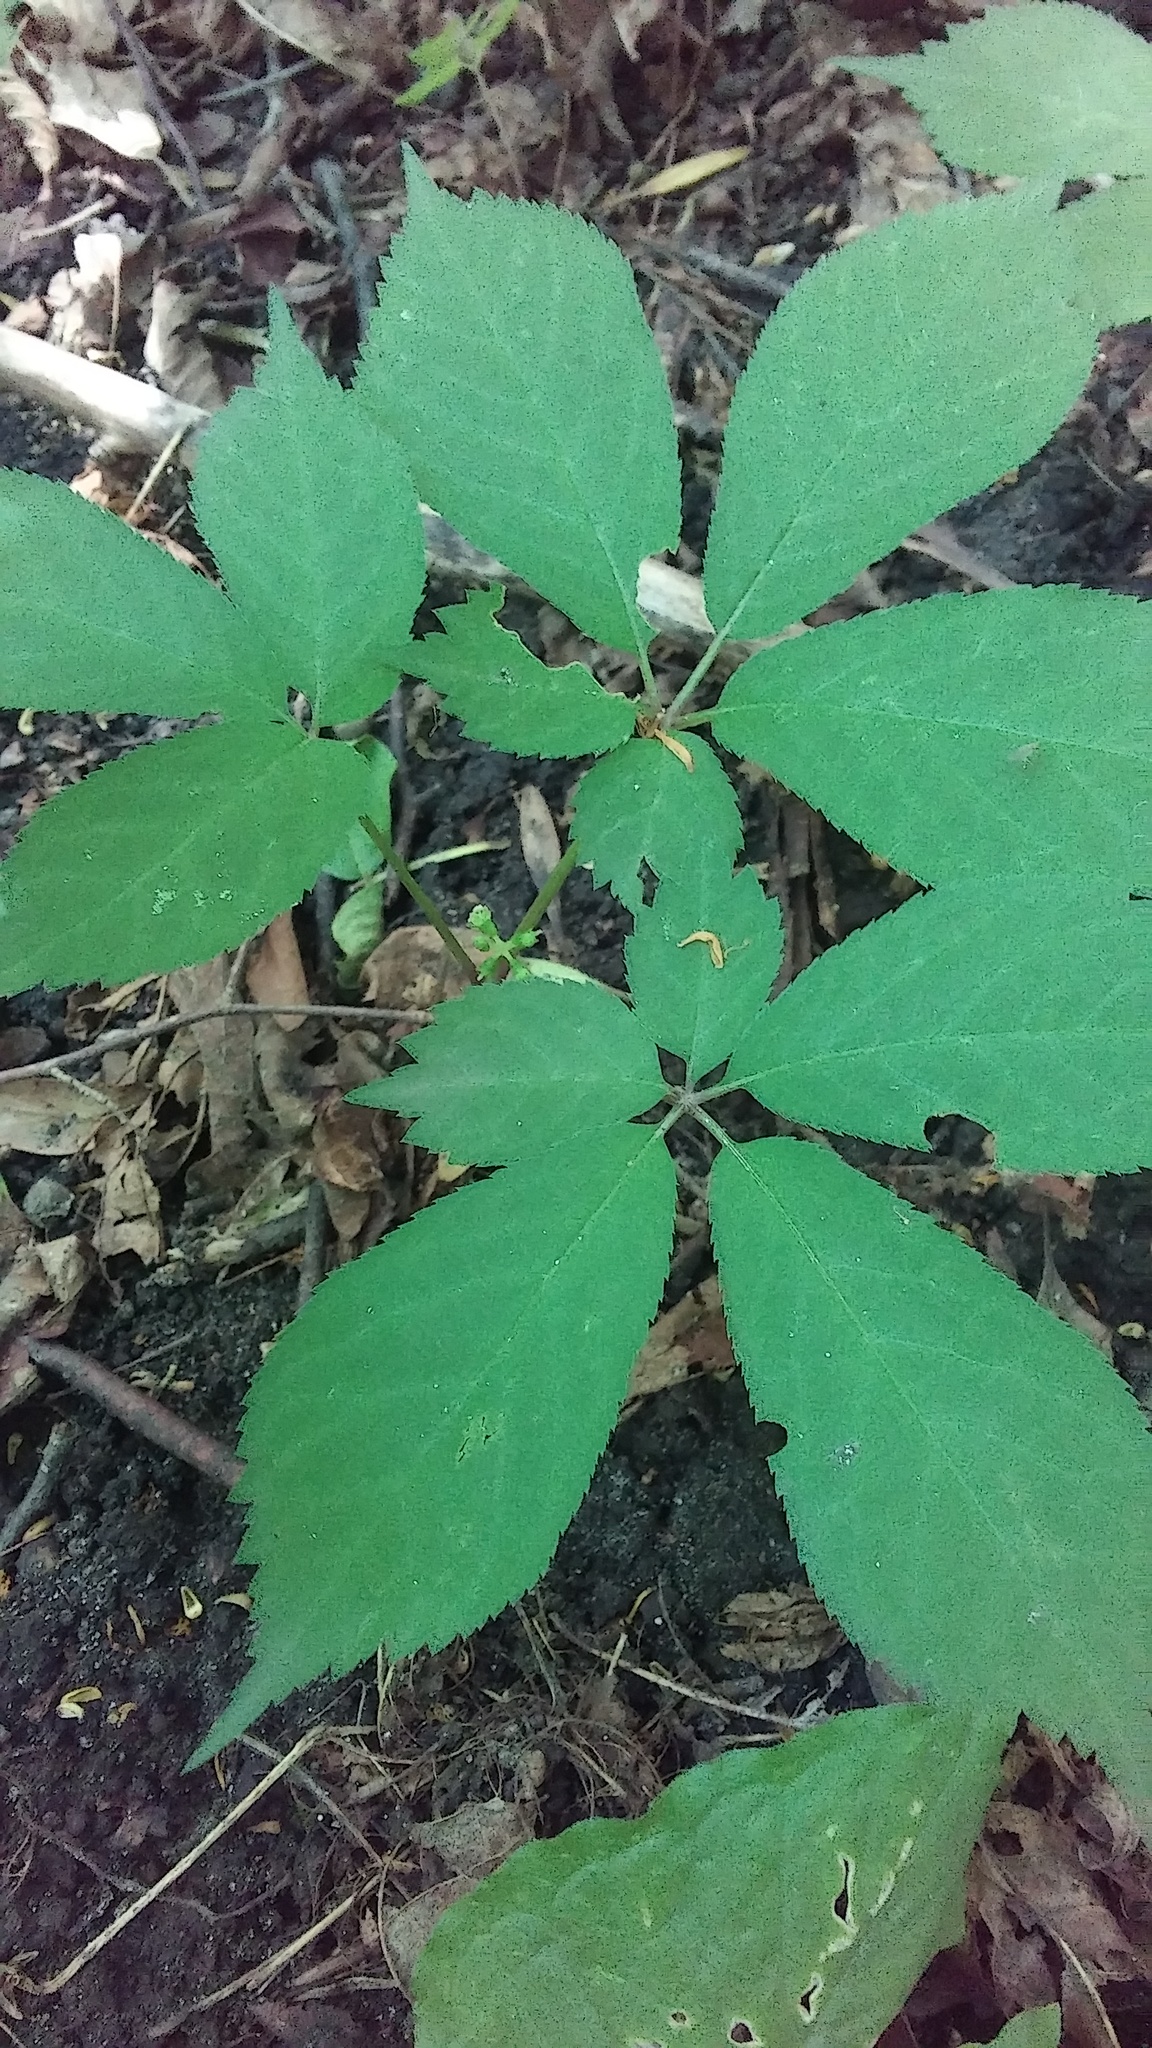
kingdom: Plantae
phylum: Tracheophyta
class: Magnoliopsida
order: Apiales
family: Araliaceae
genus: Panax
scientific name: Panax quinquefolius
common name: American ginseng
